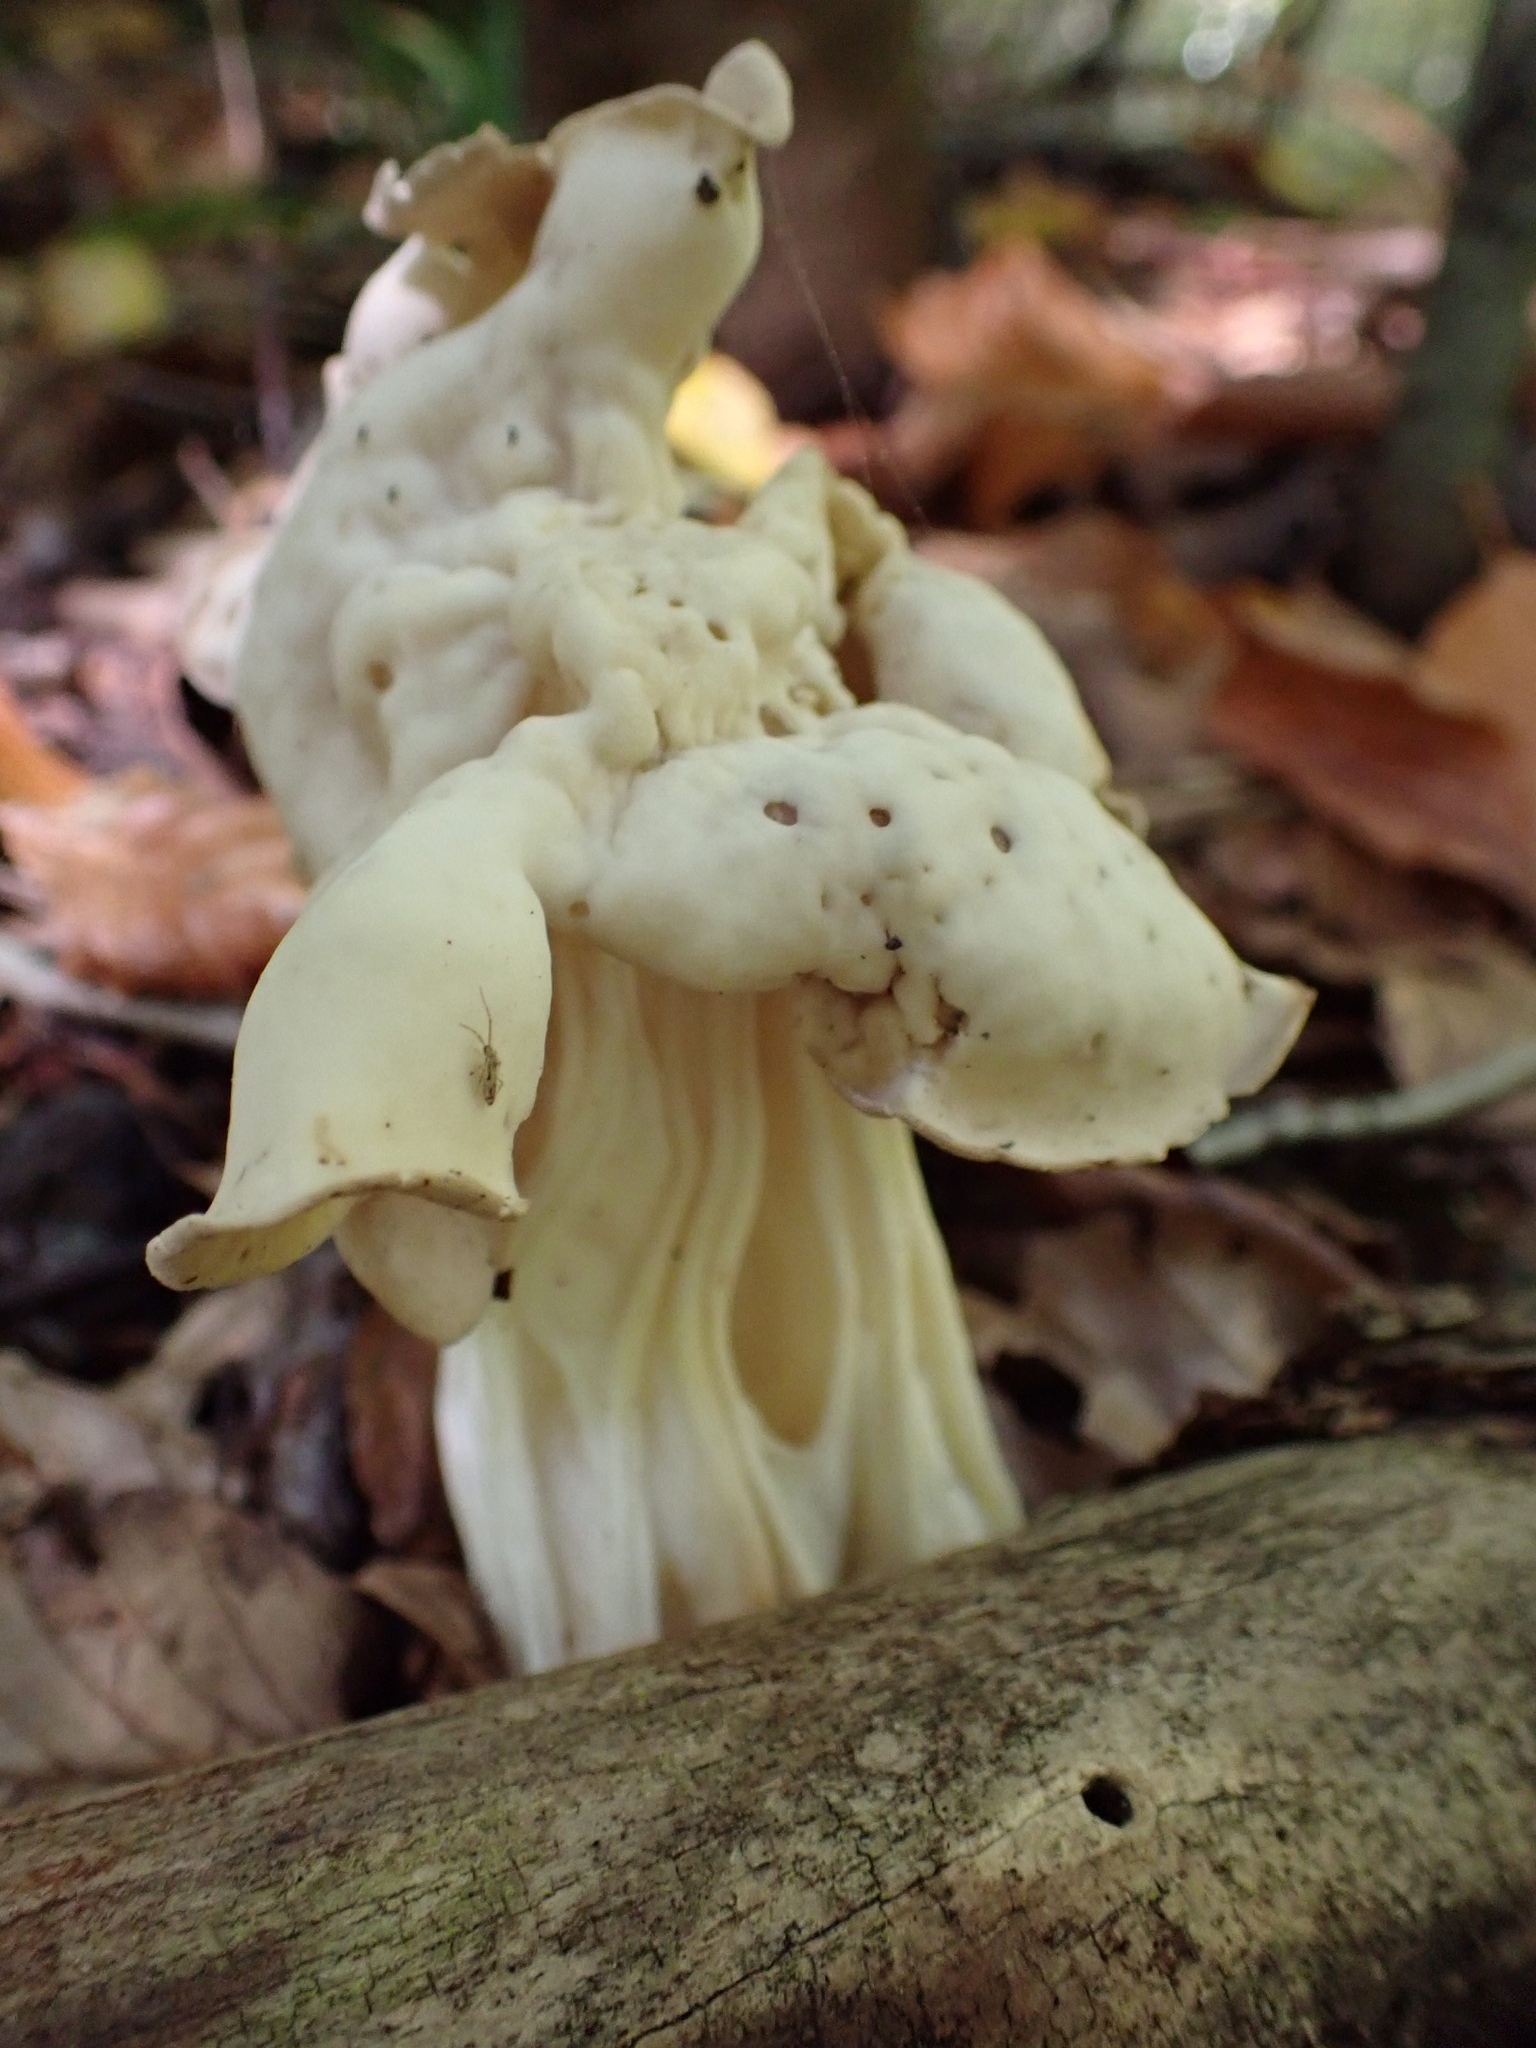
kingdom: Fungi
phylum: Ascomycota
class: Pezizomycetes
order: Pezizales
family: Helvellaceae
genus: Helvella
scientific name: Helvella crispa
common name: White saddle
